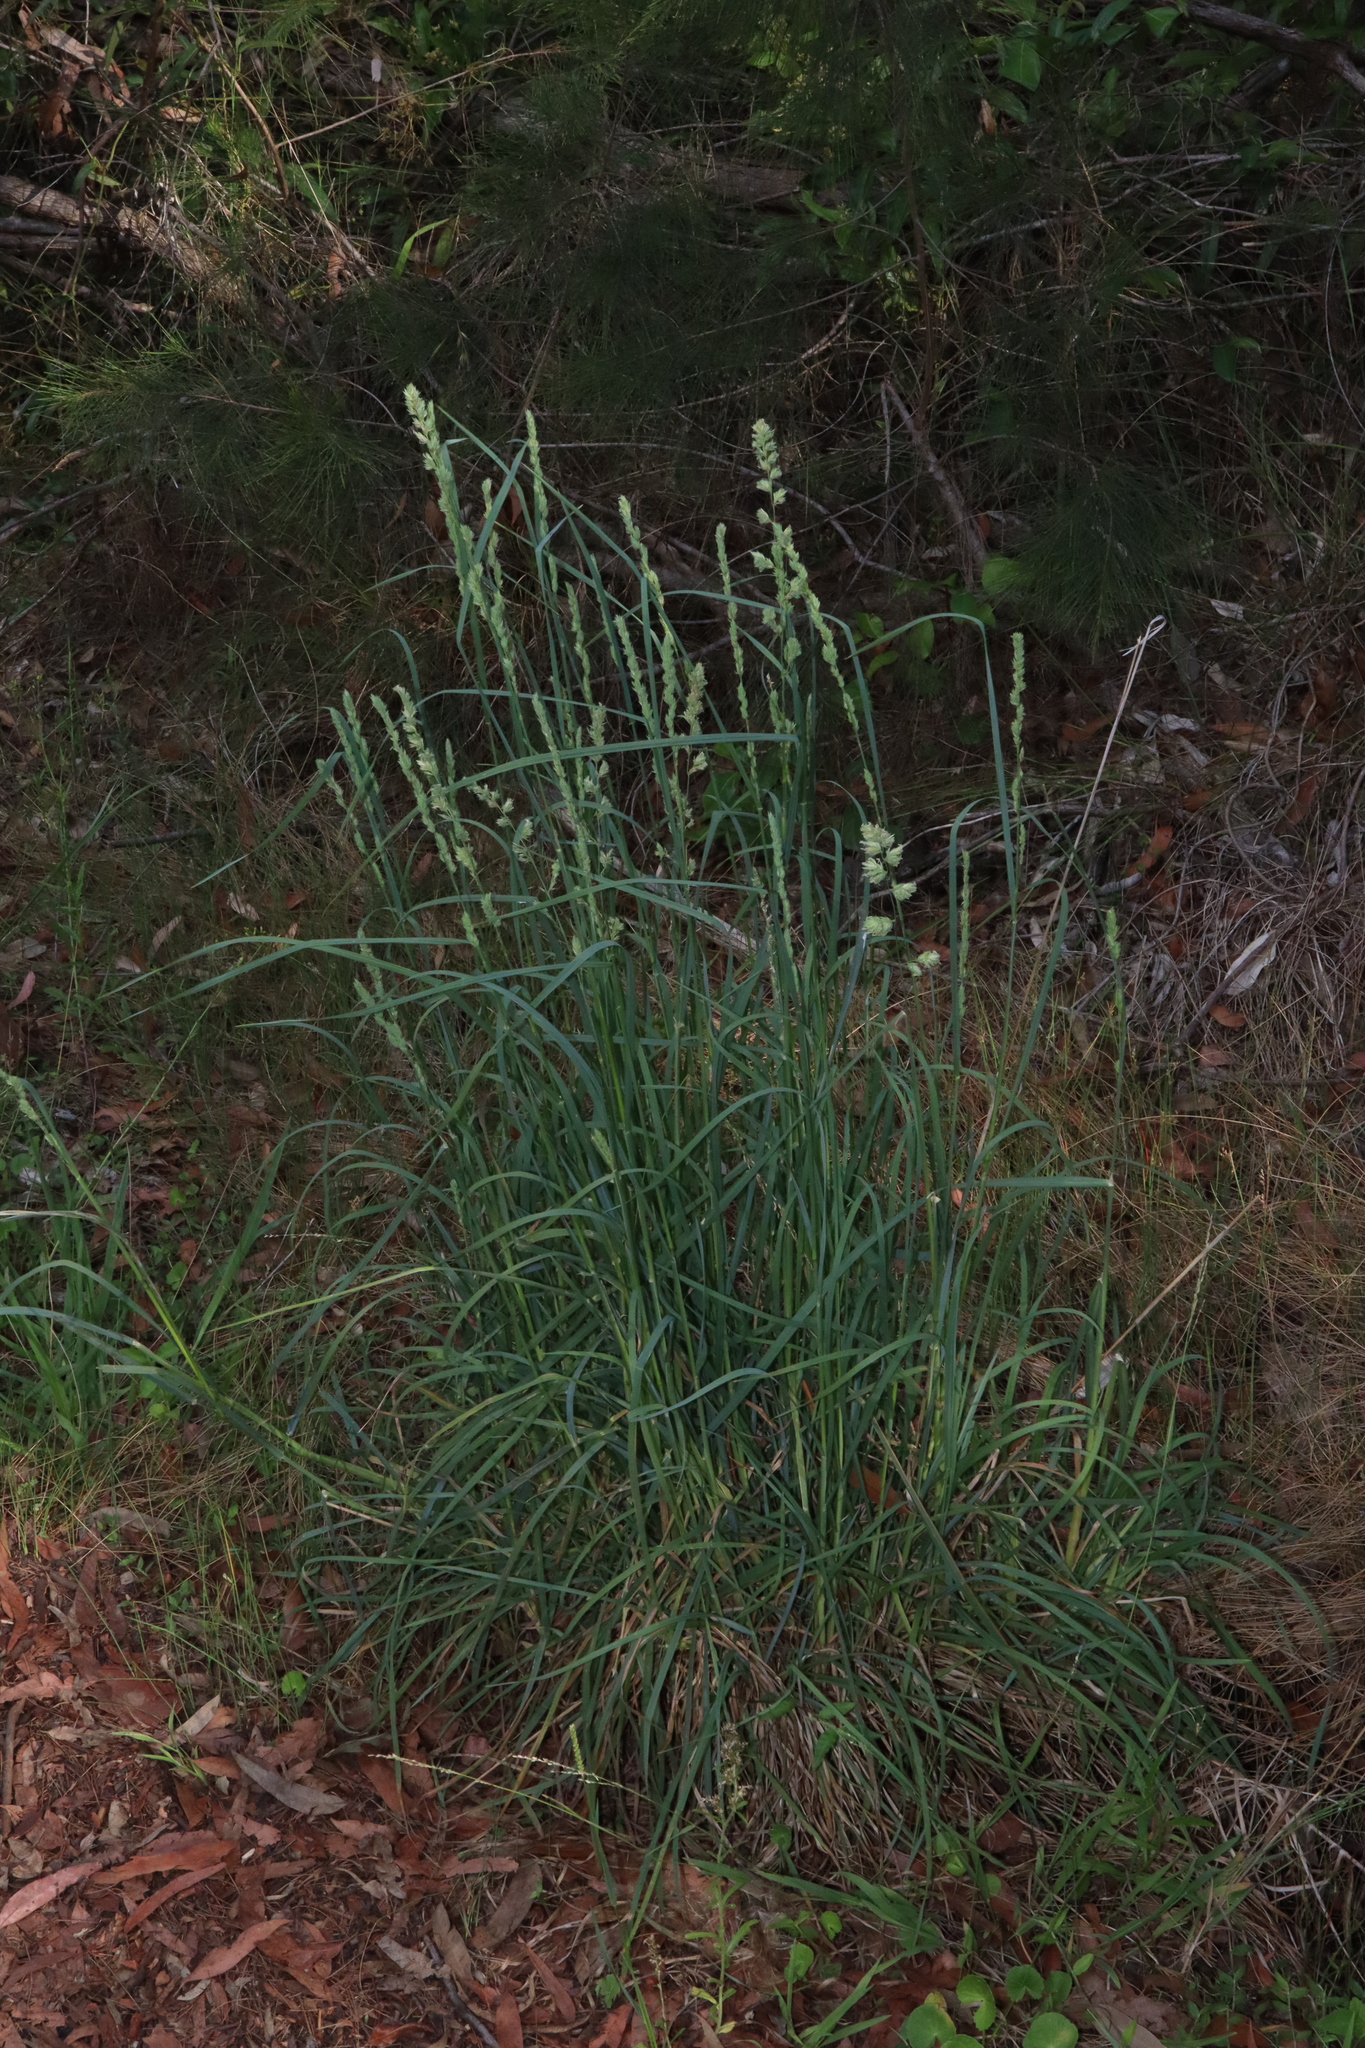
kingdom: Plantae
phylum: Tracheophyta
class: Liliopsida
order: Poales
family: Poaceae
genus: Dactylis
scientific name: Dactylis glomerata
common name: Orchardgrass
